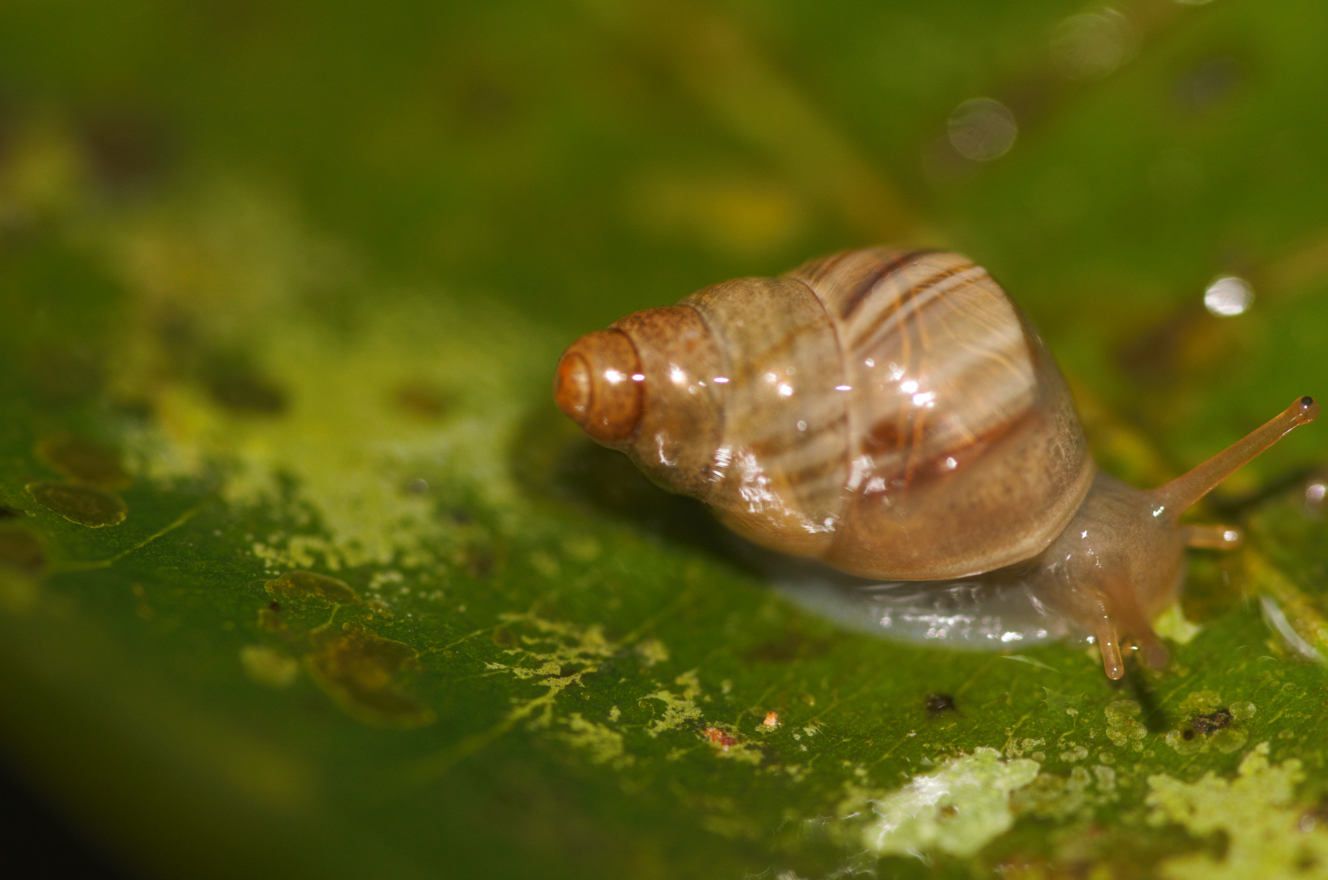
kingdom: Animalia
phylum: Mollusca
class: Gastropoda
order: Stylommatophora
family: Simpulopsidae
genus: Leiostracus
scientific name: Leiostracus demerarensis
